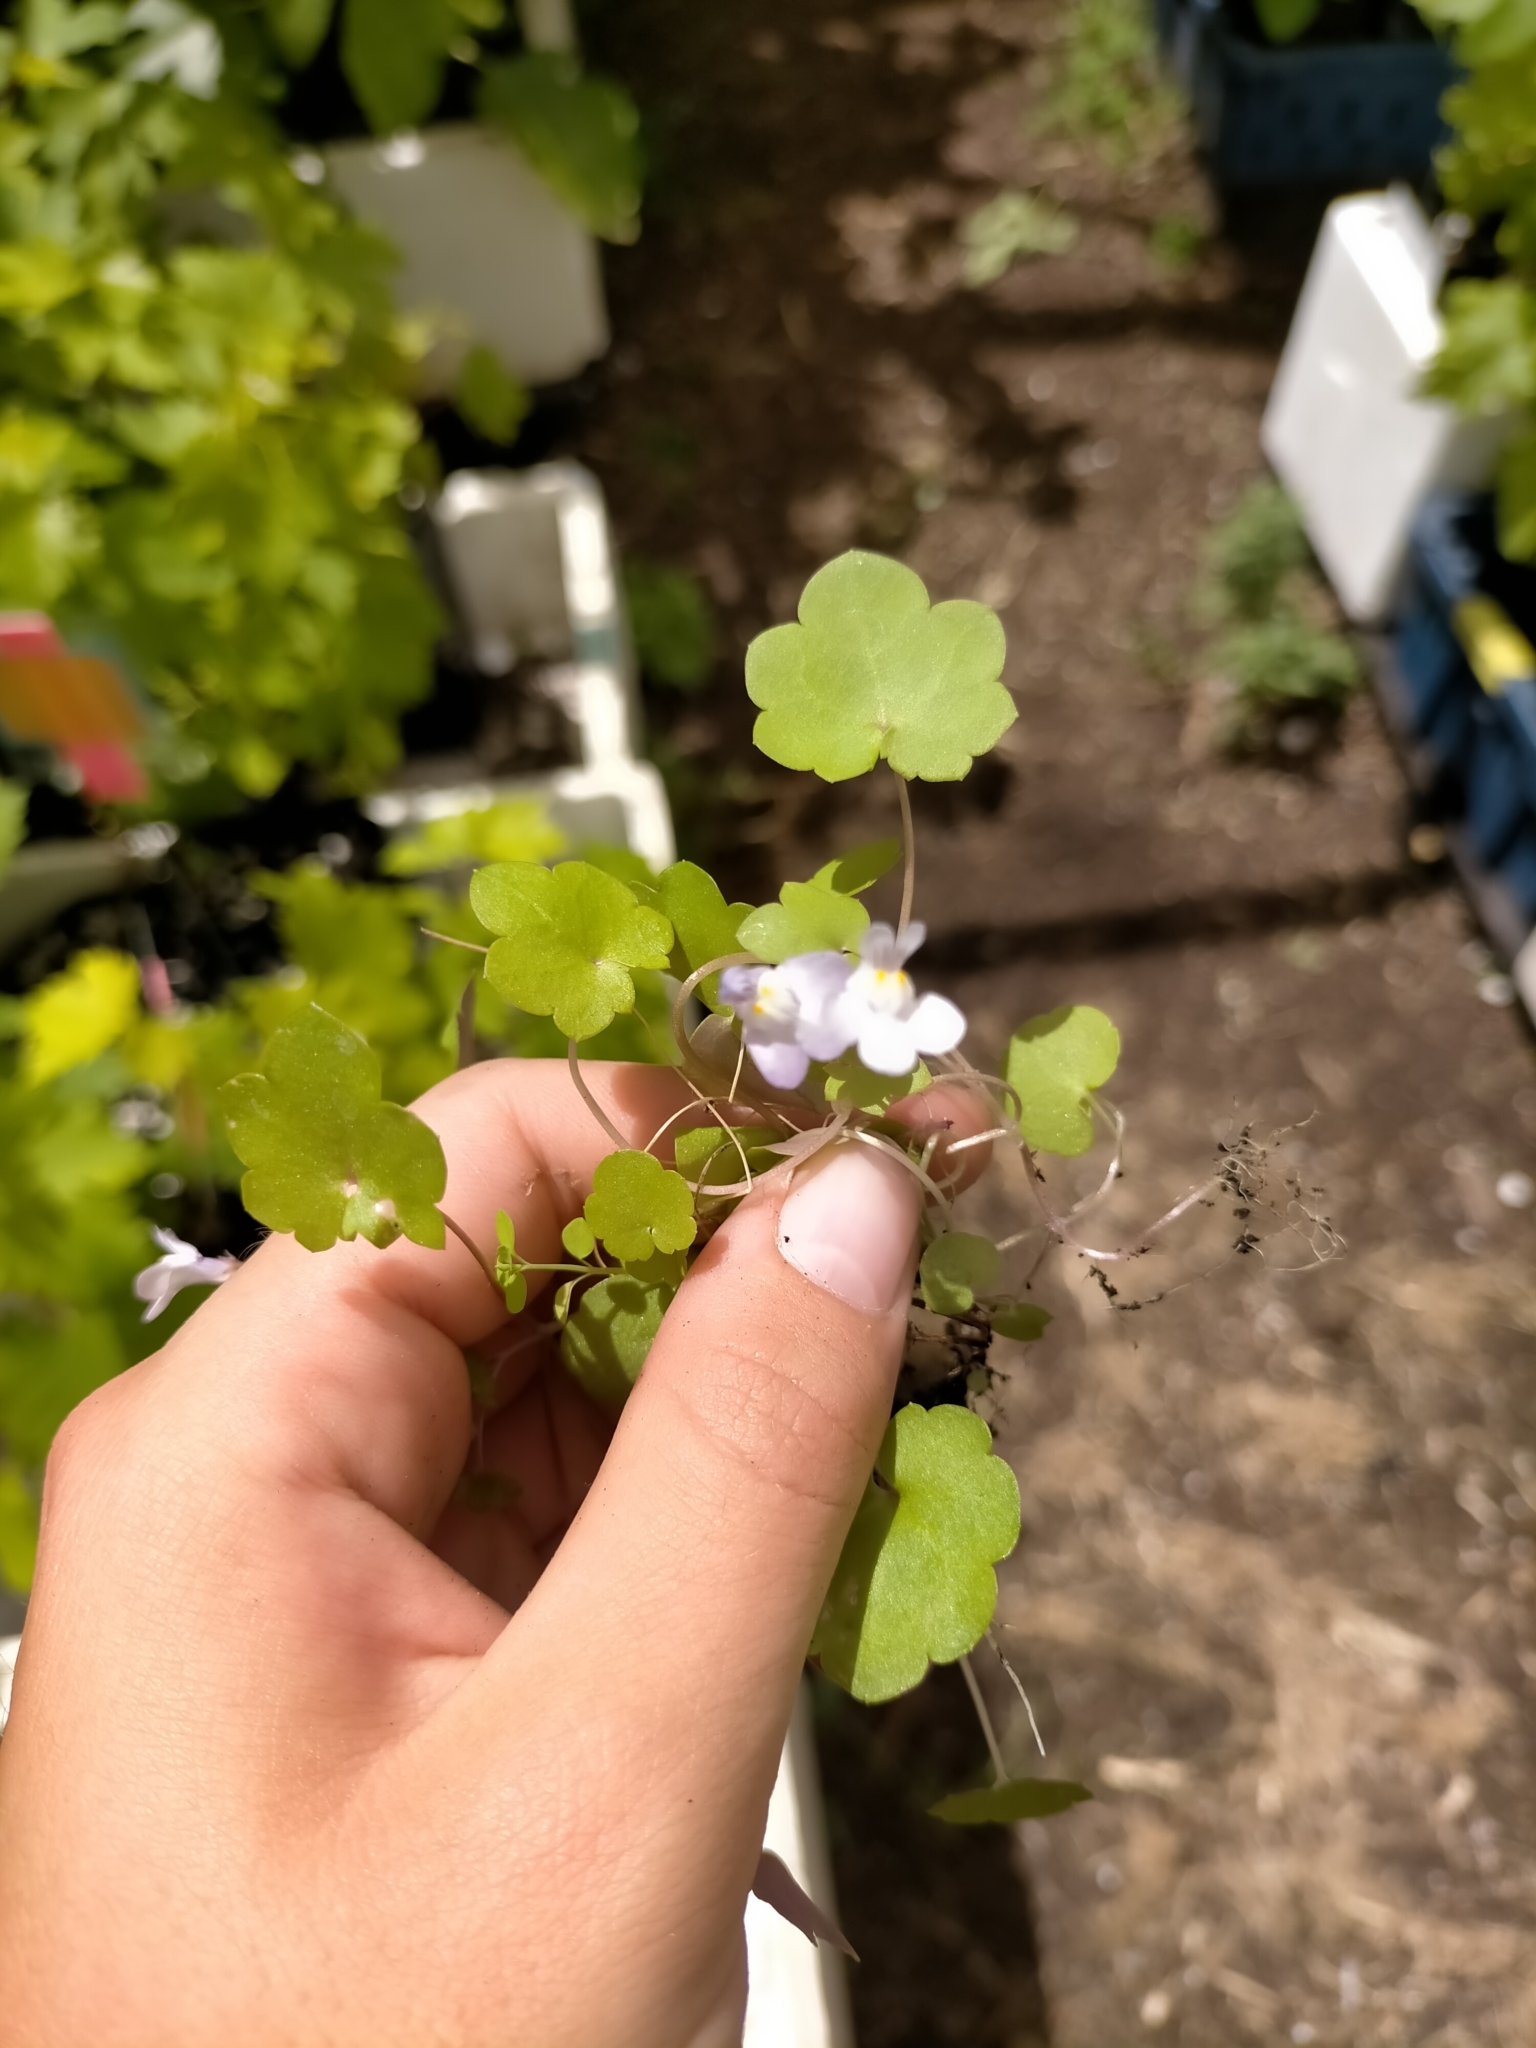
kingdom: Plantae
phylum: Tracheophyta
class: Magnoliopsida
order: Lamiales
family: Plantaginaceae
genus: Cymbalaria
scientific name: Cymbalaria muralis
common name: Ivy-leaved toadflax
